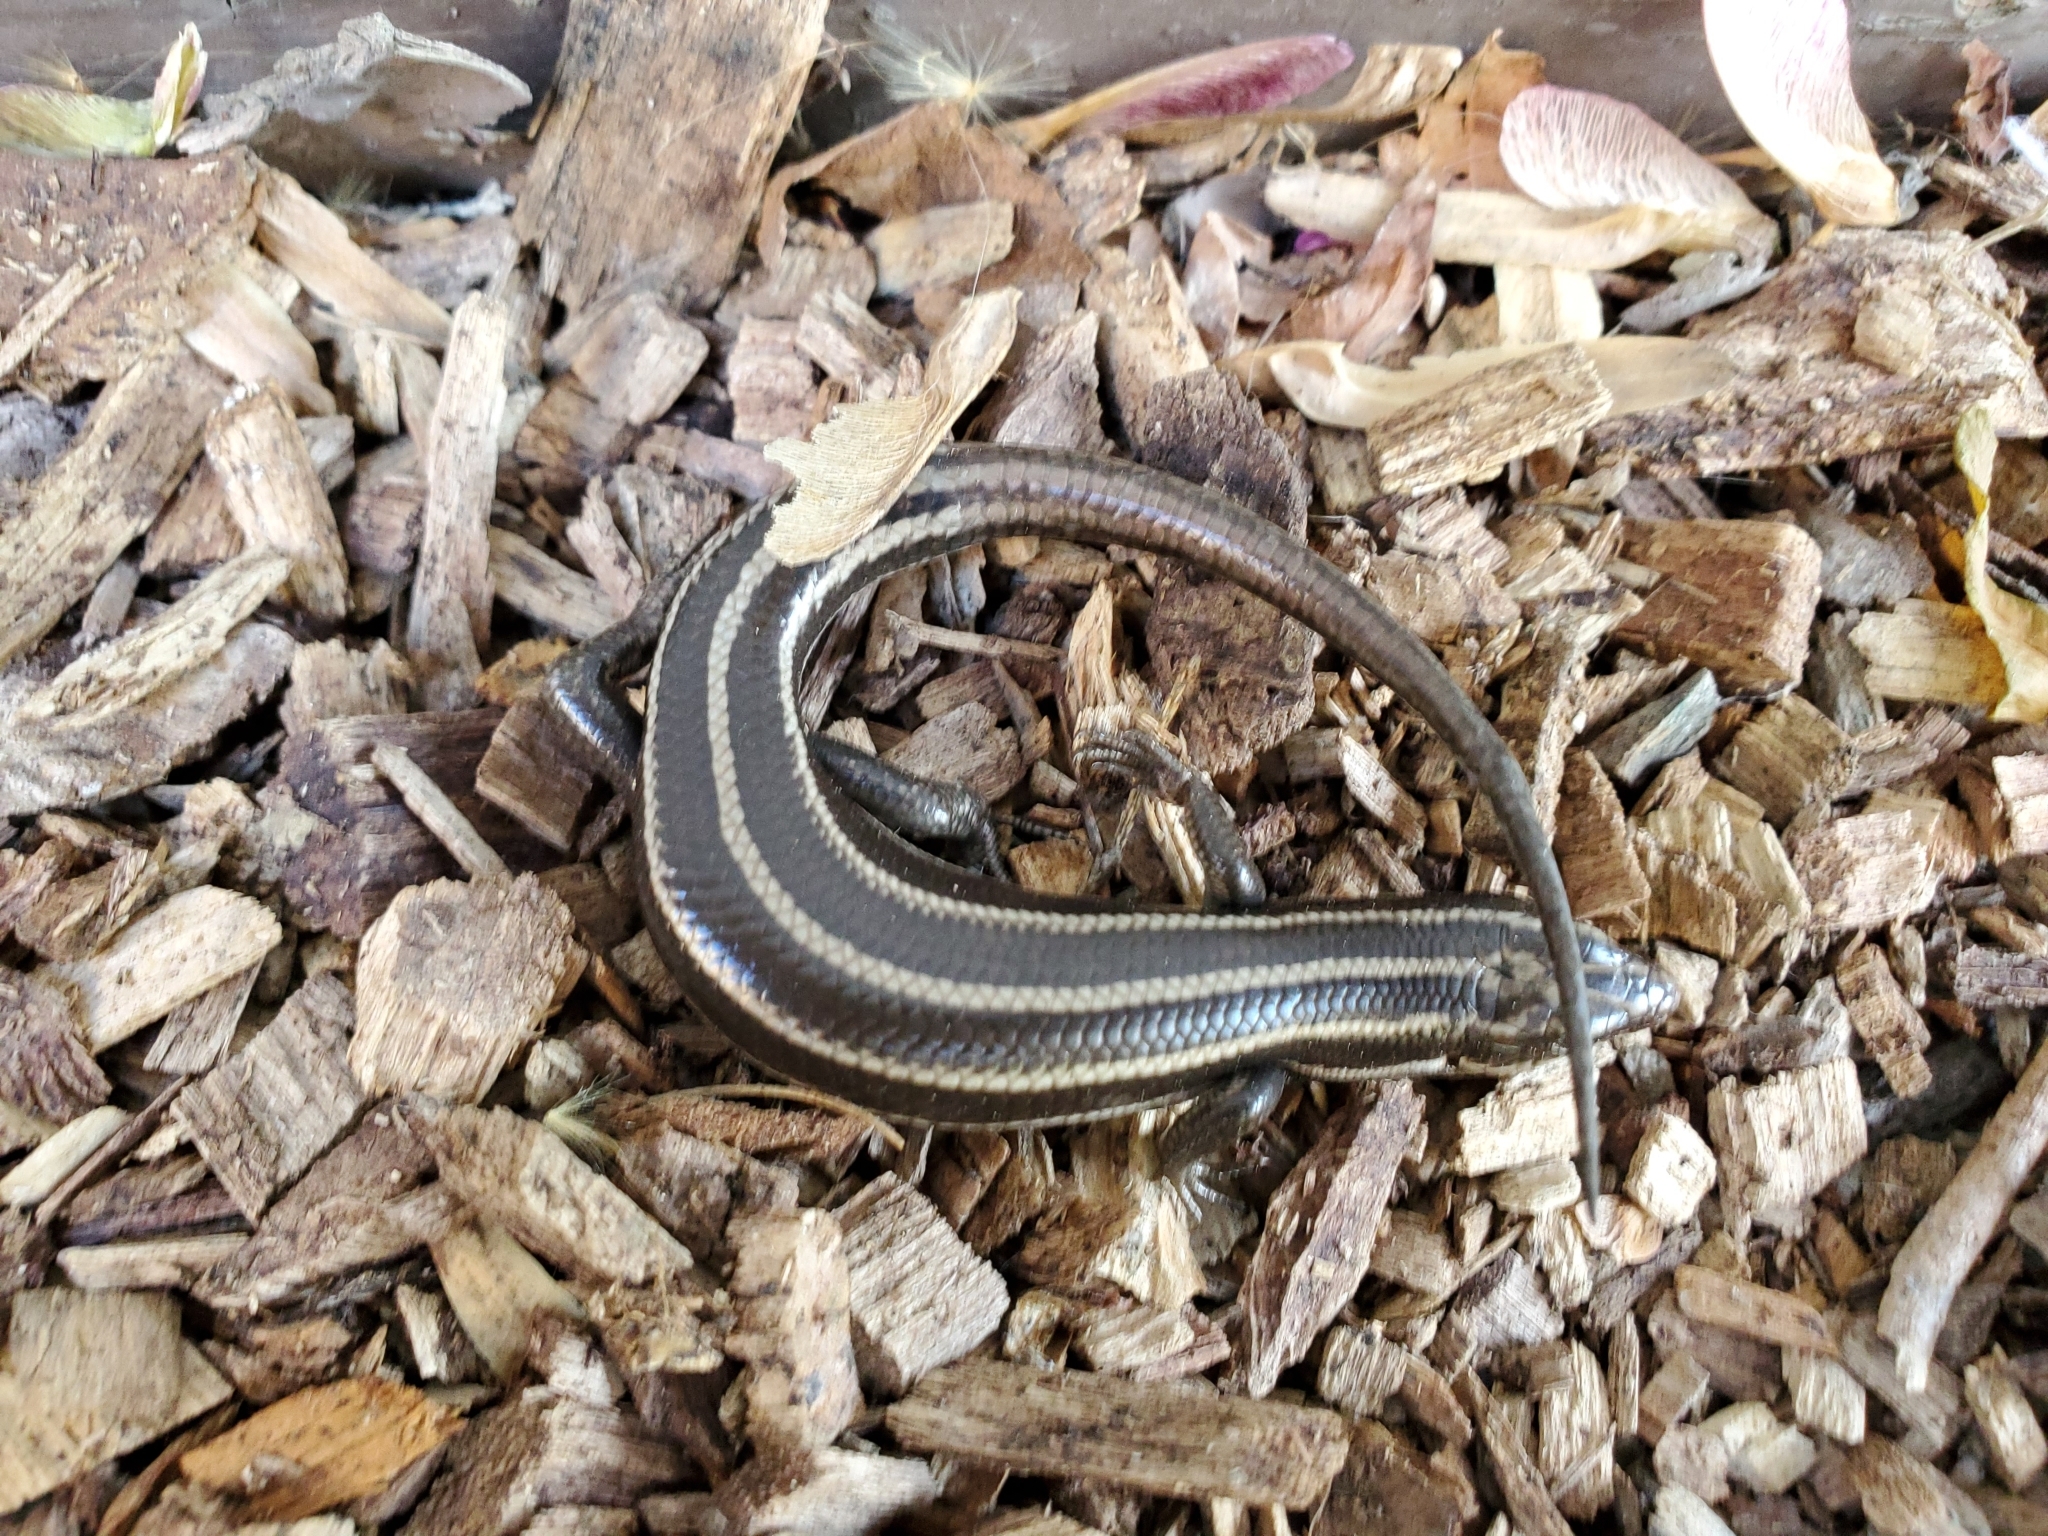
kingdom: Animalia
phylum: Chordata
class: Squamata
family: Scincidae
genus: Plestiodon
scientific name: Plestiodon fasciatus
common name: Five-lined skink
